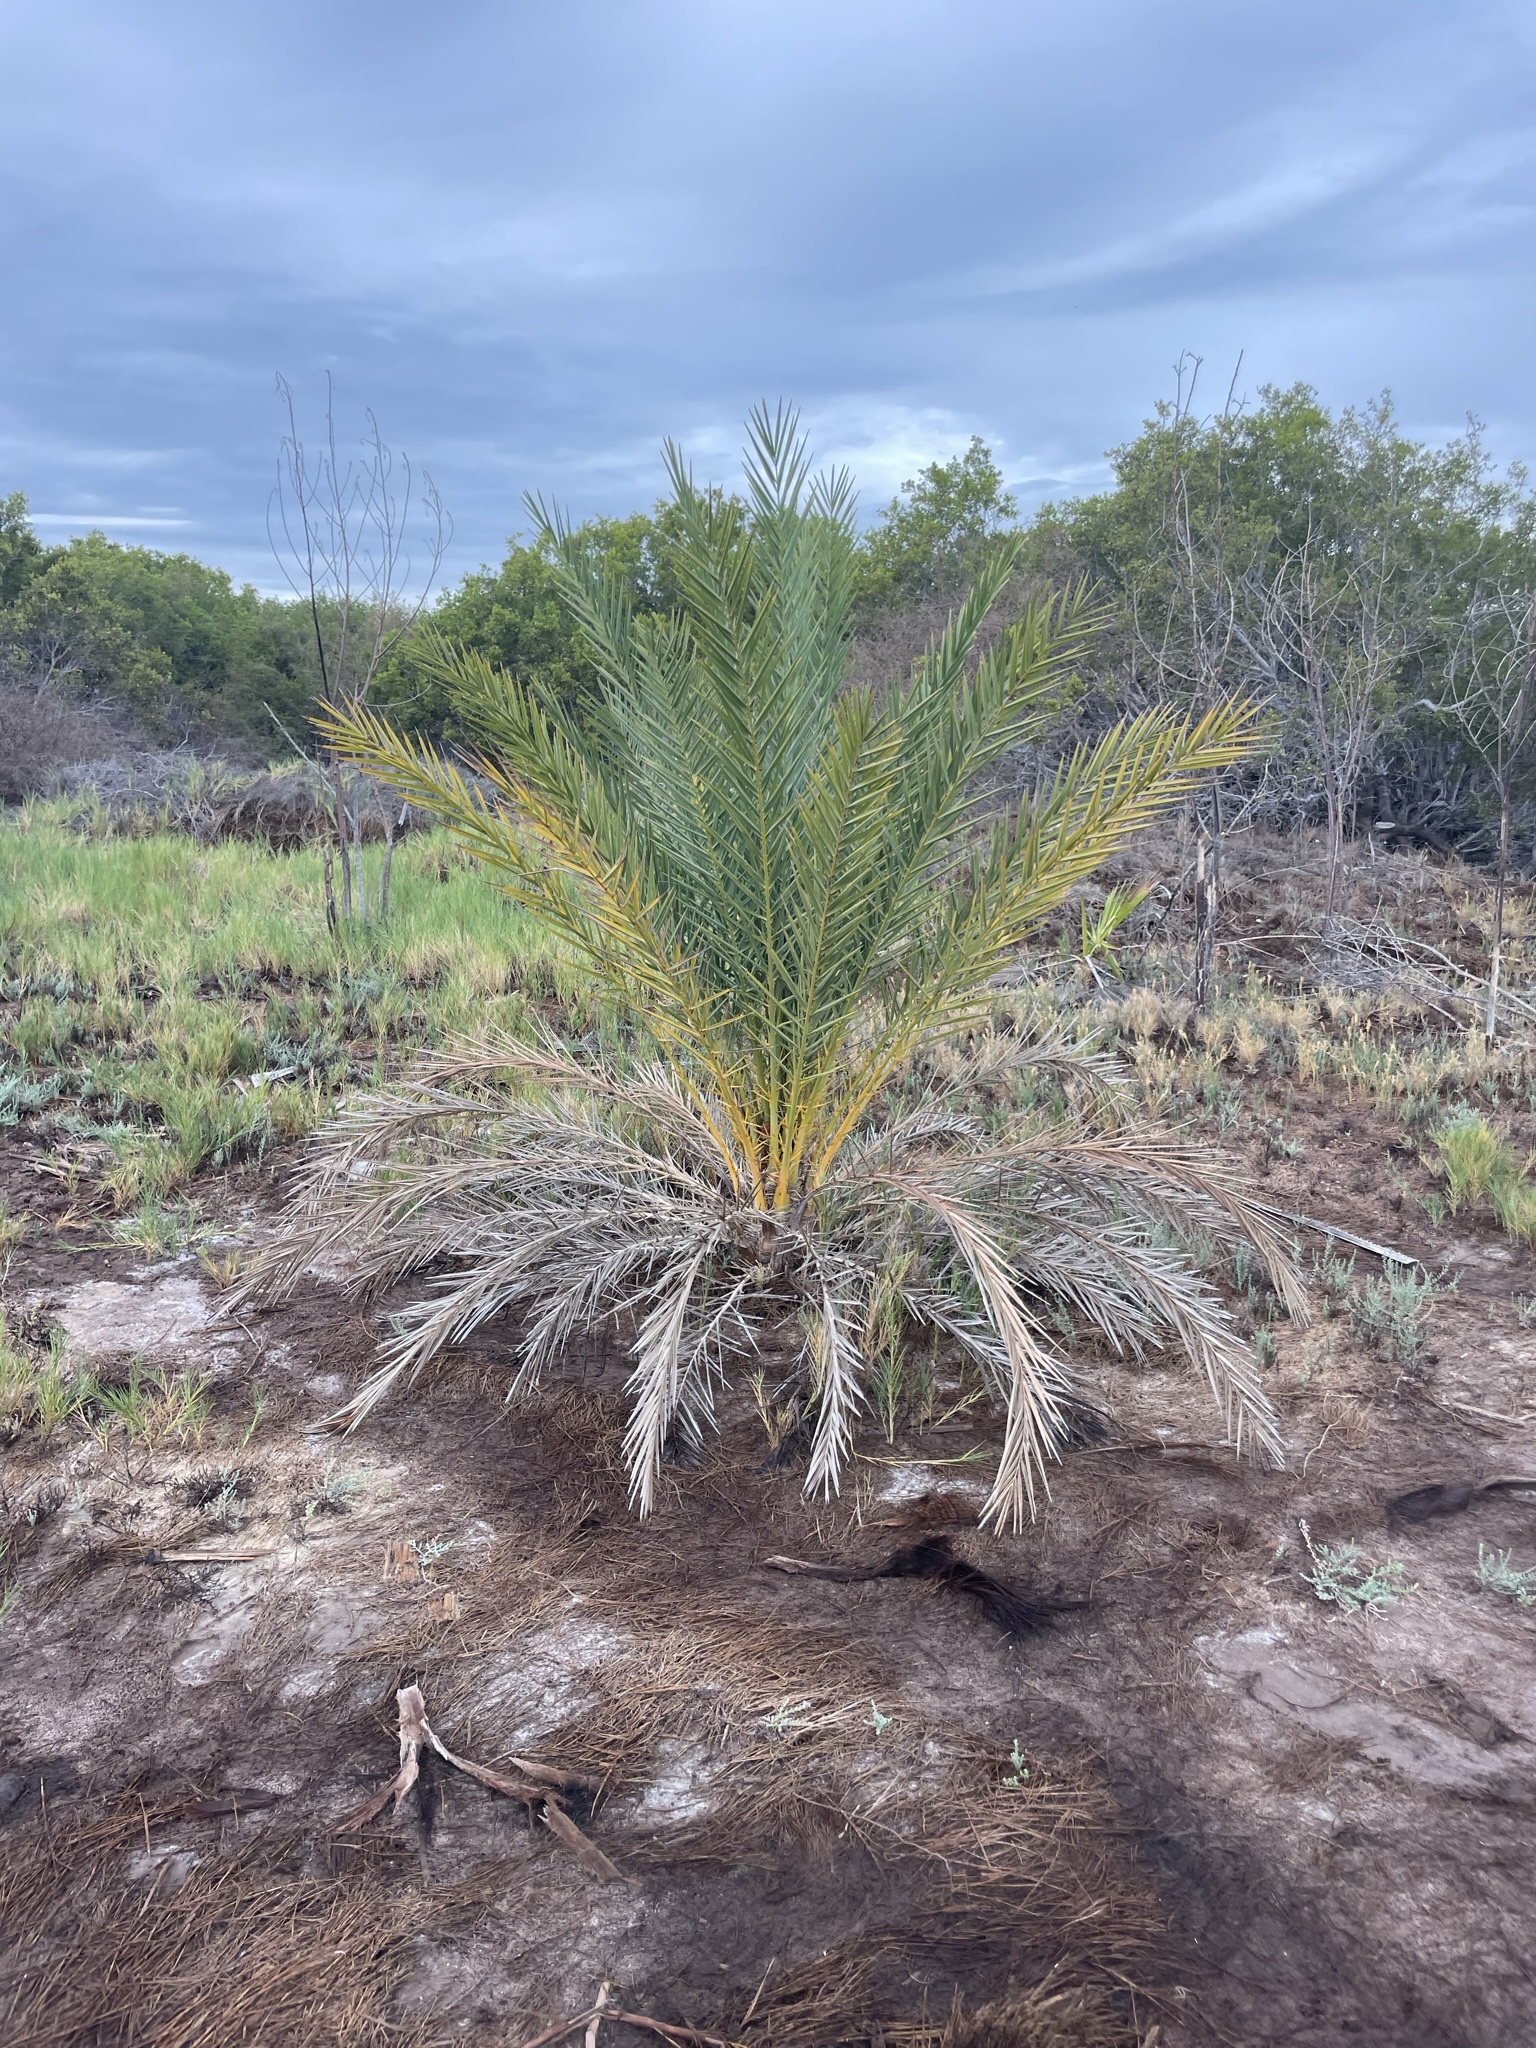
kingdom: Plantae
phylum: Tracheophyta
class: Liliopsida
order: Arecales
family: Arecaceae
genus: Phoenix
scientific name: Phoenix dactylifera
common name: Date palm
